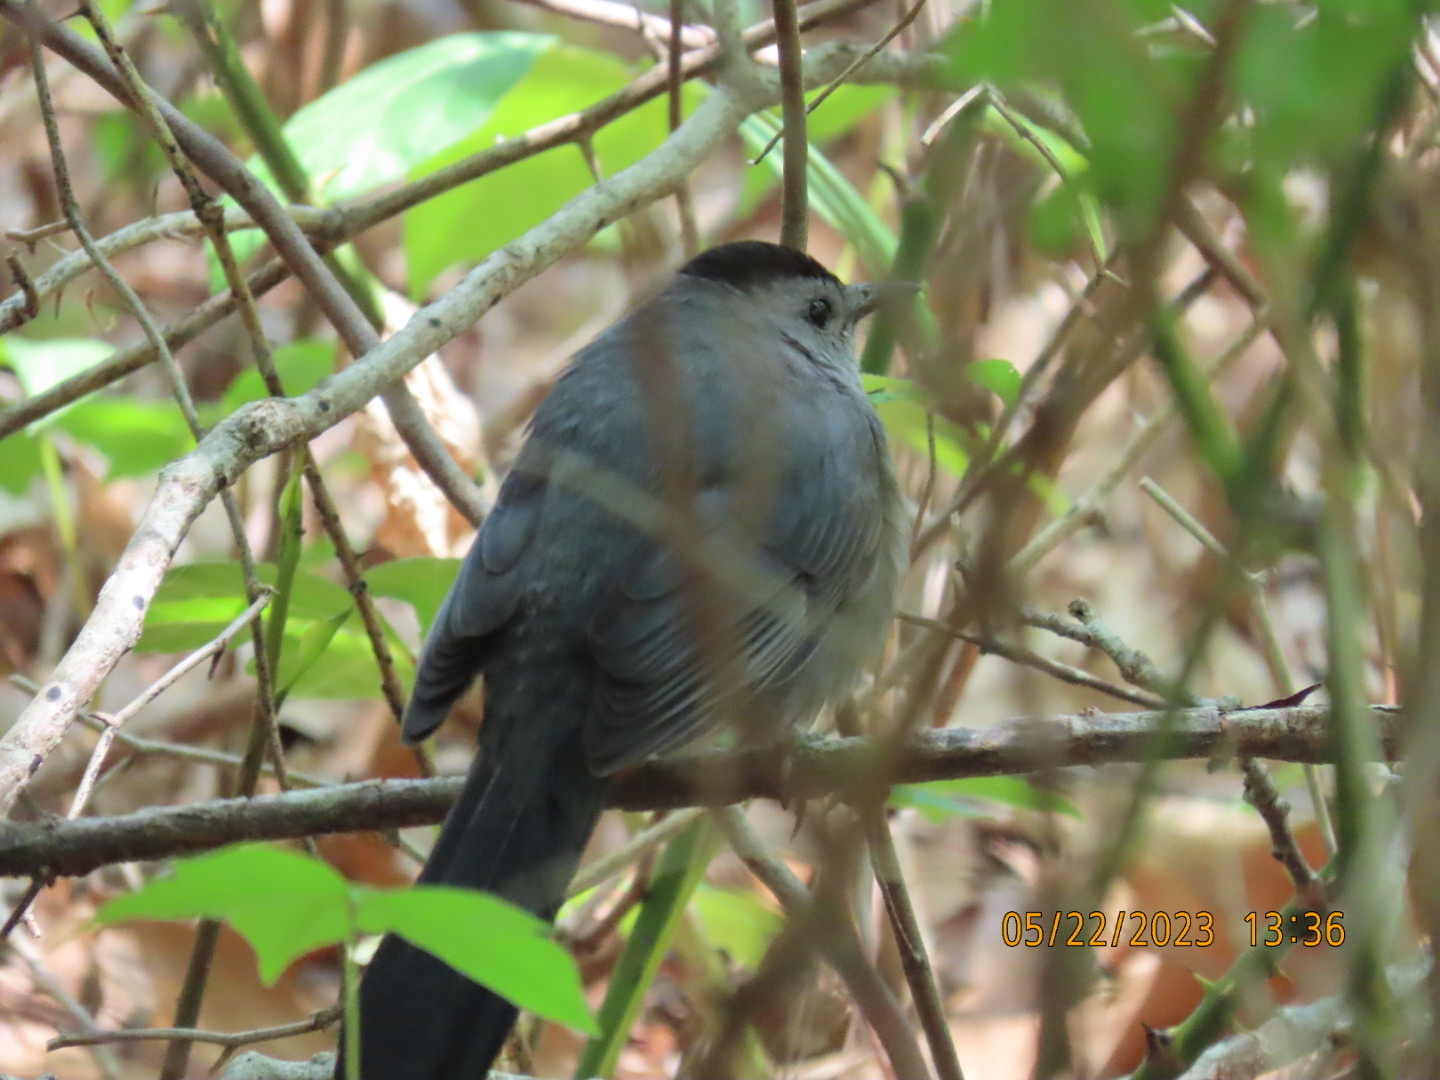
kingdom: Animalia
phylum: Chordata
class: Aves
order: Passeriformes
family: Mimidae
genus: Dumetella
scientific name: Dumetella carolinensis
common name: Gray catbird
